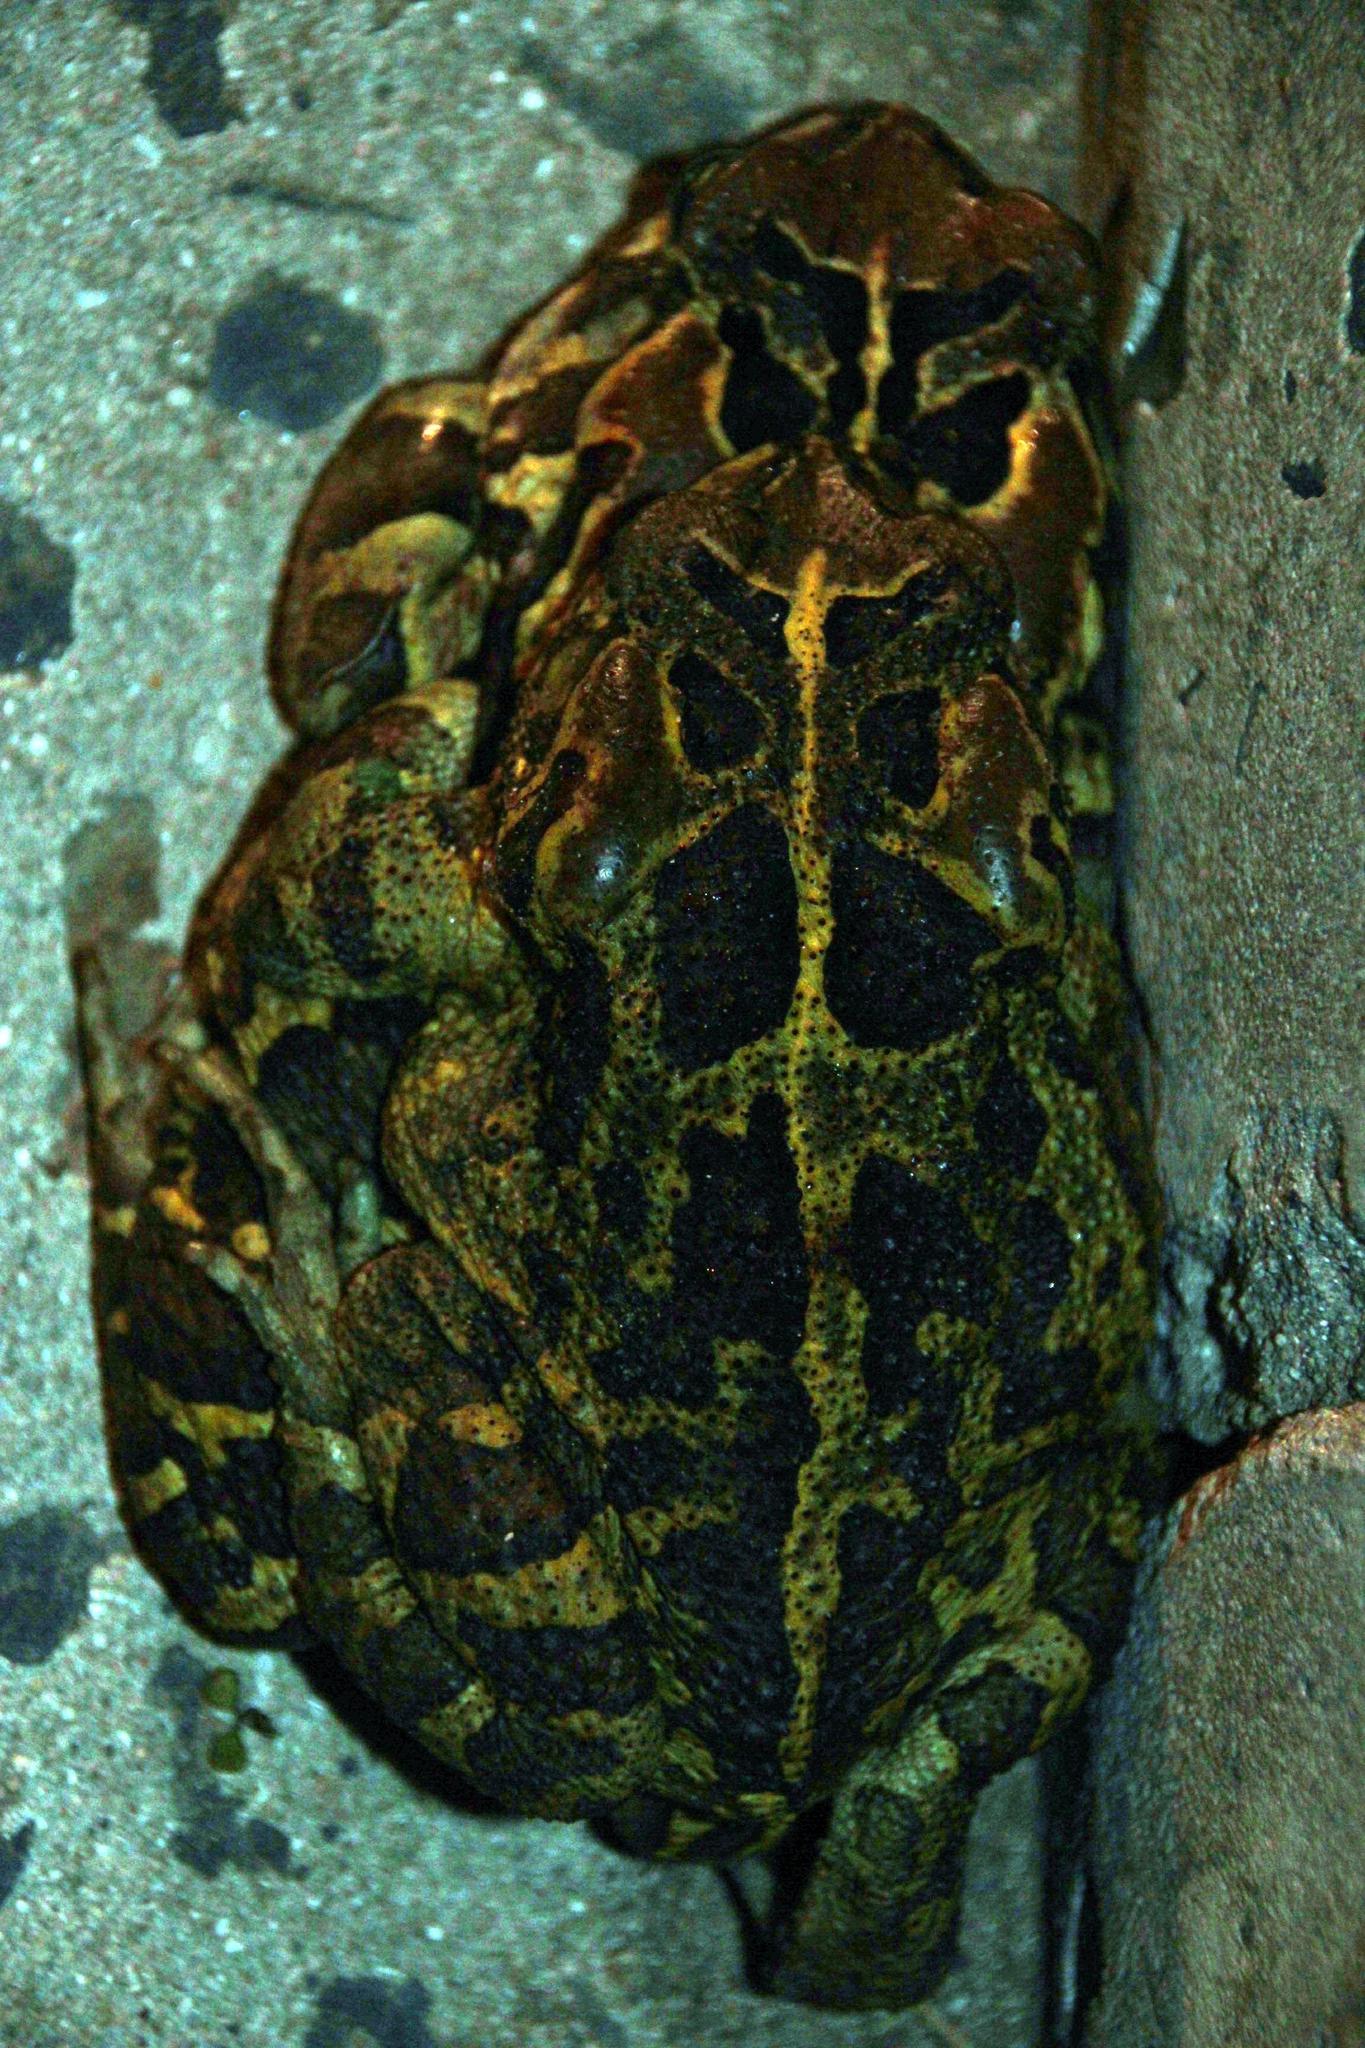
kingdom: Animalia
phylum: Chordata
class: Amphibia
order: Anura
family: Bufonidae
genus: Sclerophrys
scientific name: Sclerophrys pantherina
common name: Panther toad
